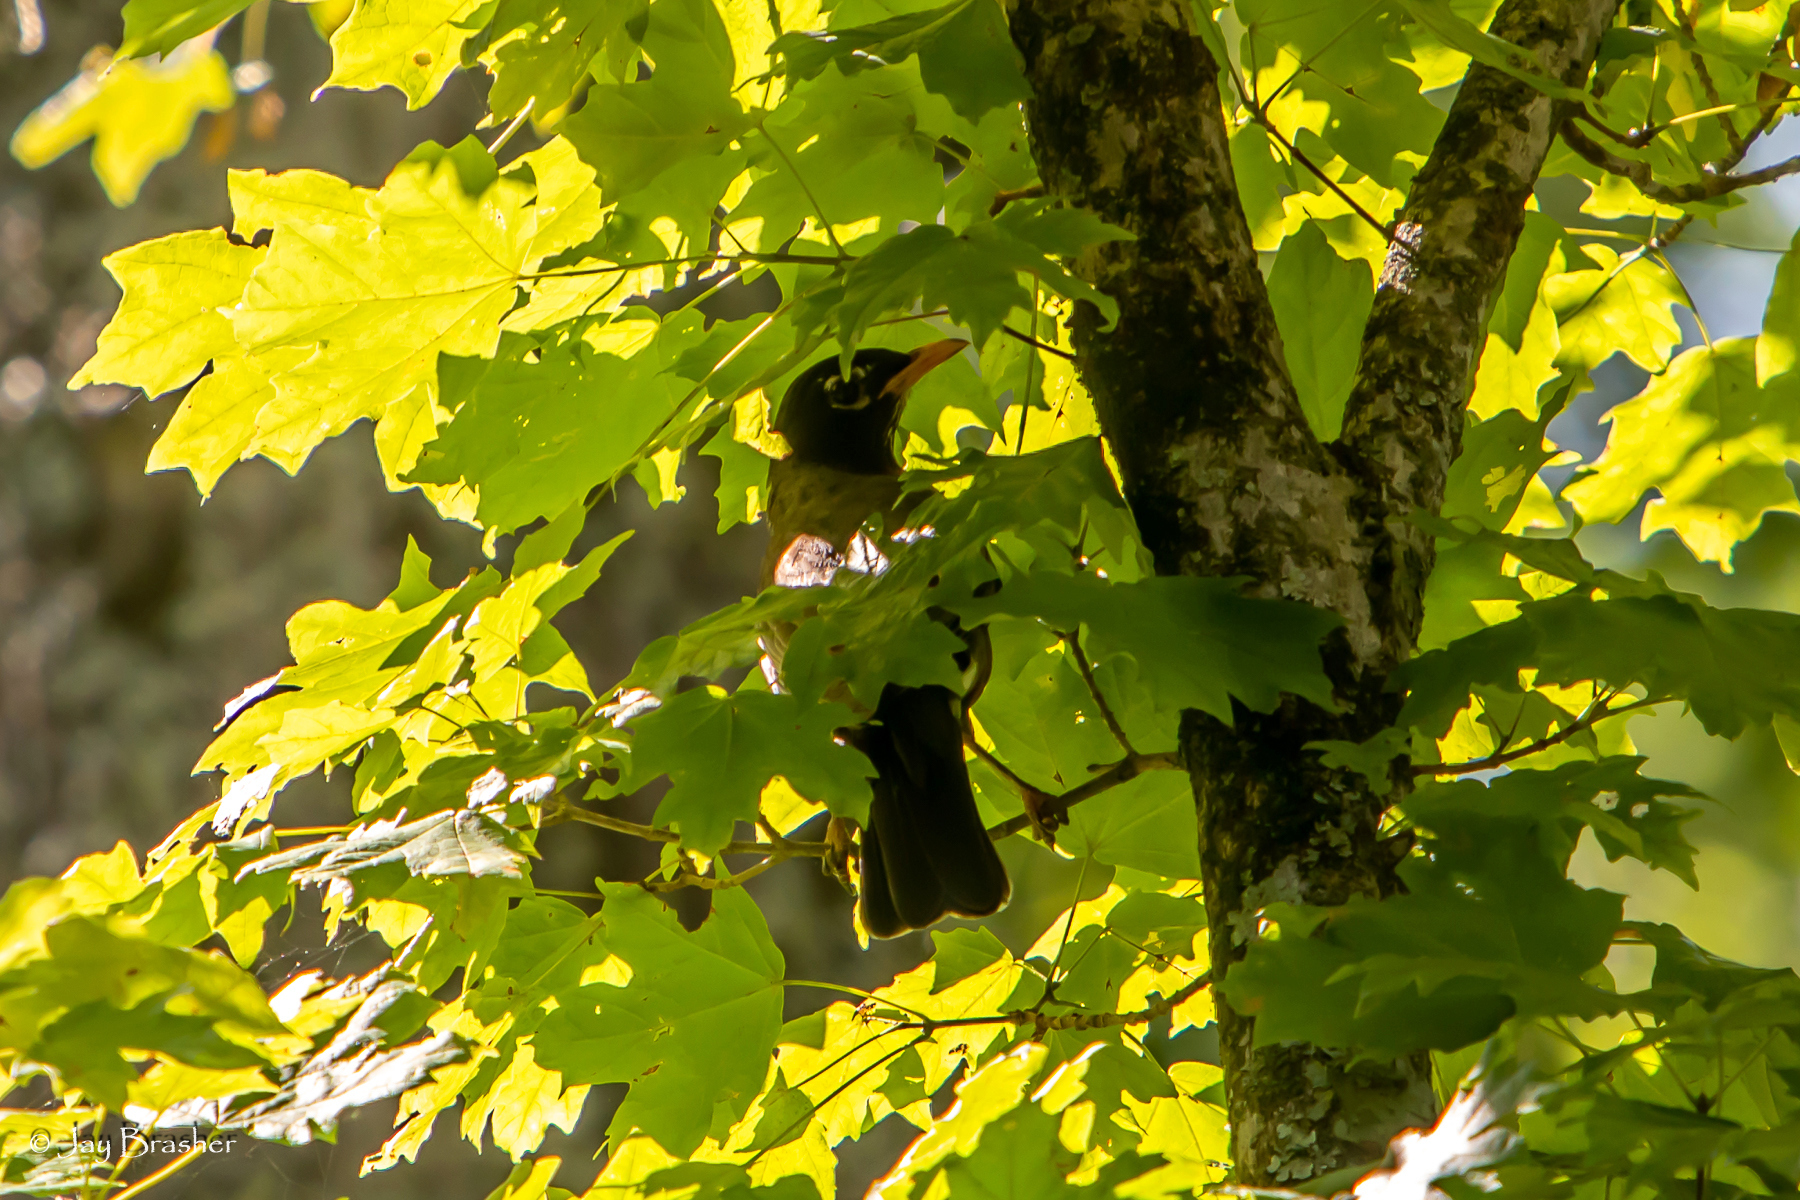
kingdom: Animalia
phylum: Chordata
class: Aves
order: Passeriformes
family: Turdidae
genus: Turdus
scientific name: Turdus migratorius
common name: American robin
